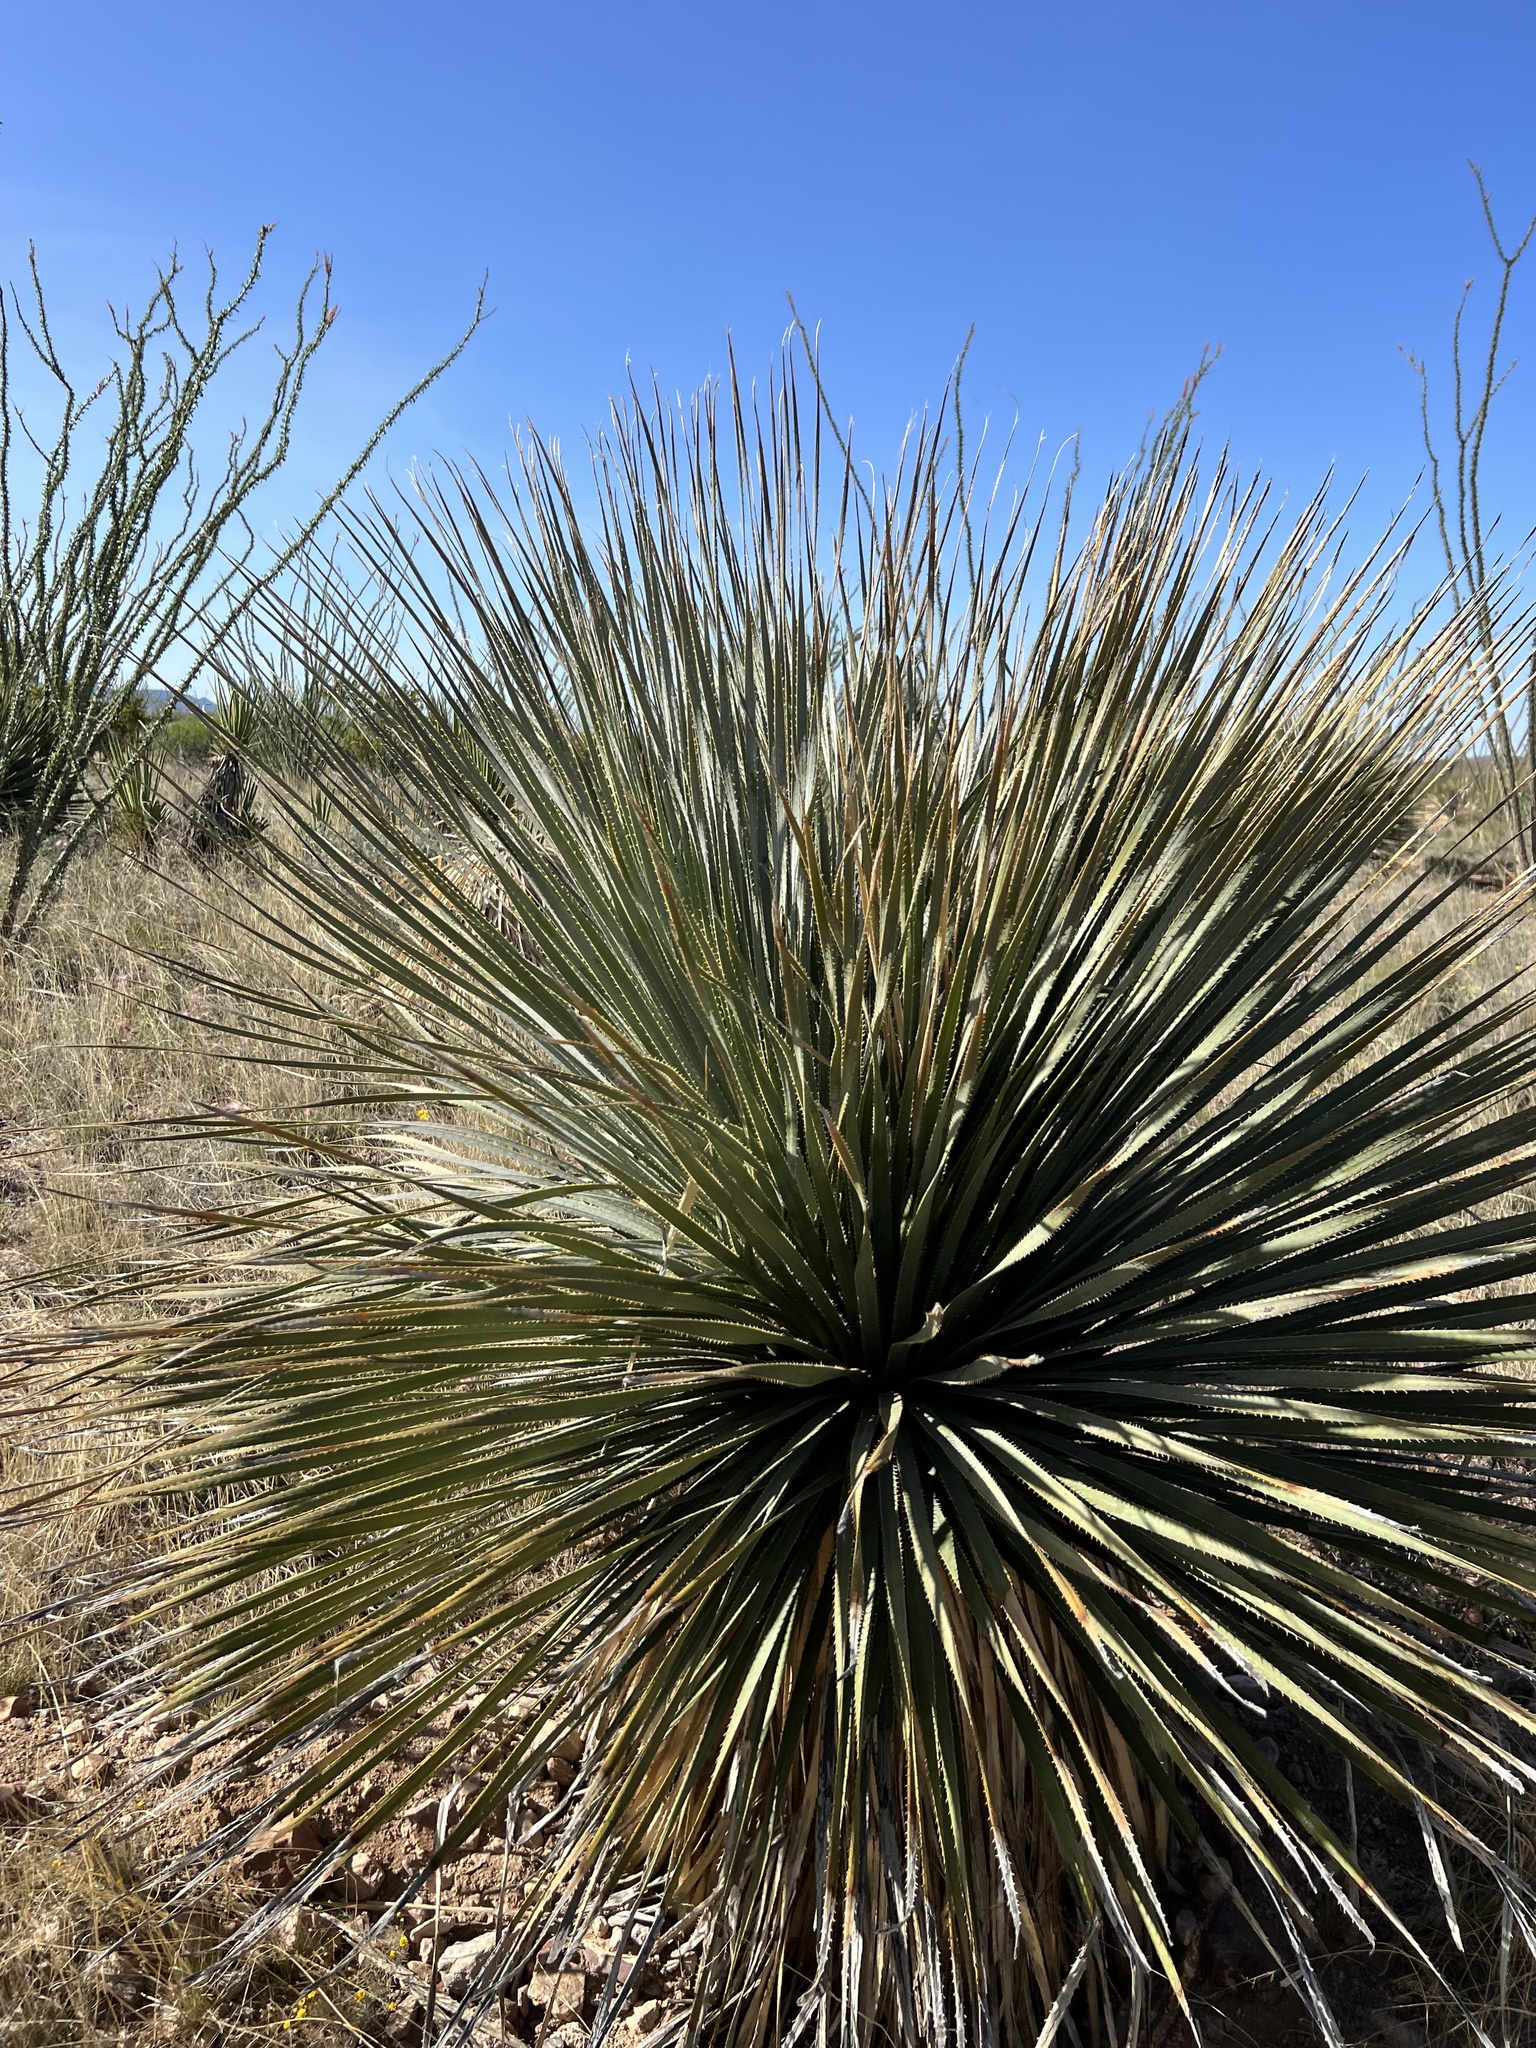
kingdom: Plantae
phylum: Tracheophyta
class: Liliopsida
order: Asparagales
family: Asparagaceae
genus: Dasylirion
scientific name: Dasylirion wheeleri
